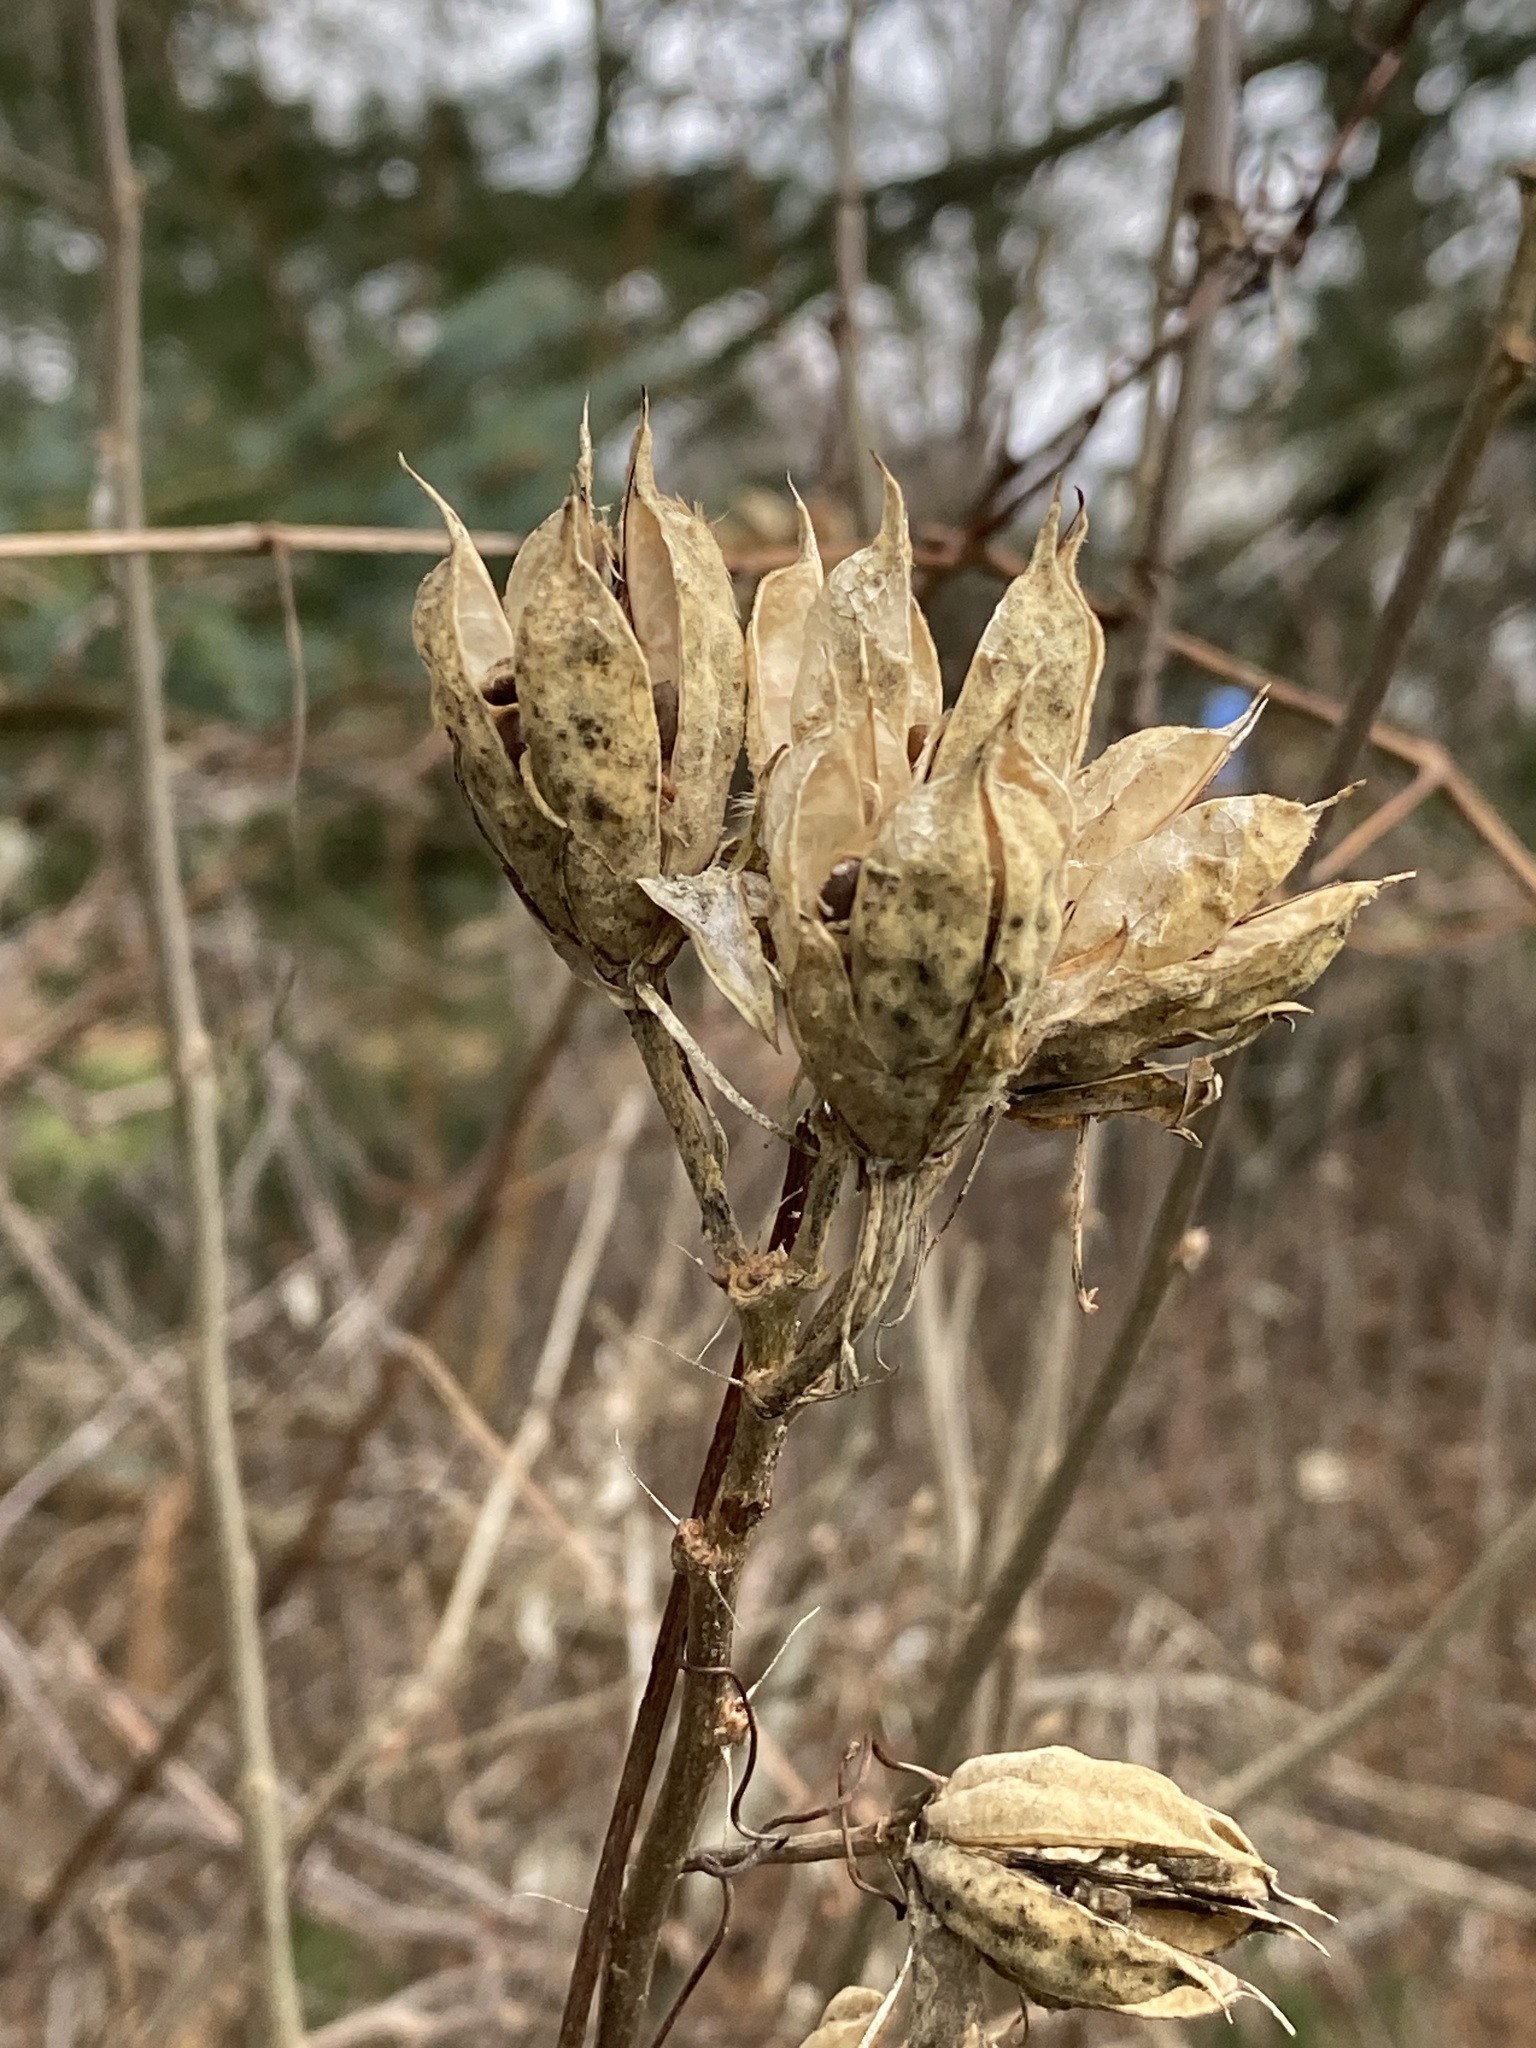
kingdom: Plantae
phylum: Tracheophyta
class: Magnoliopsida
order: Malvales
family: Malvaceae
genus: Hibiscus
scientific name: Hibiscus syriacus
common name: Syrian ketmia
